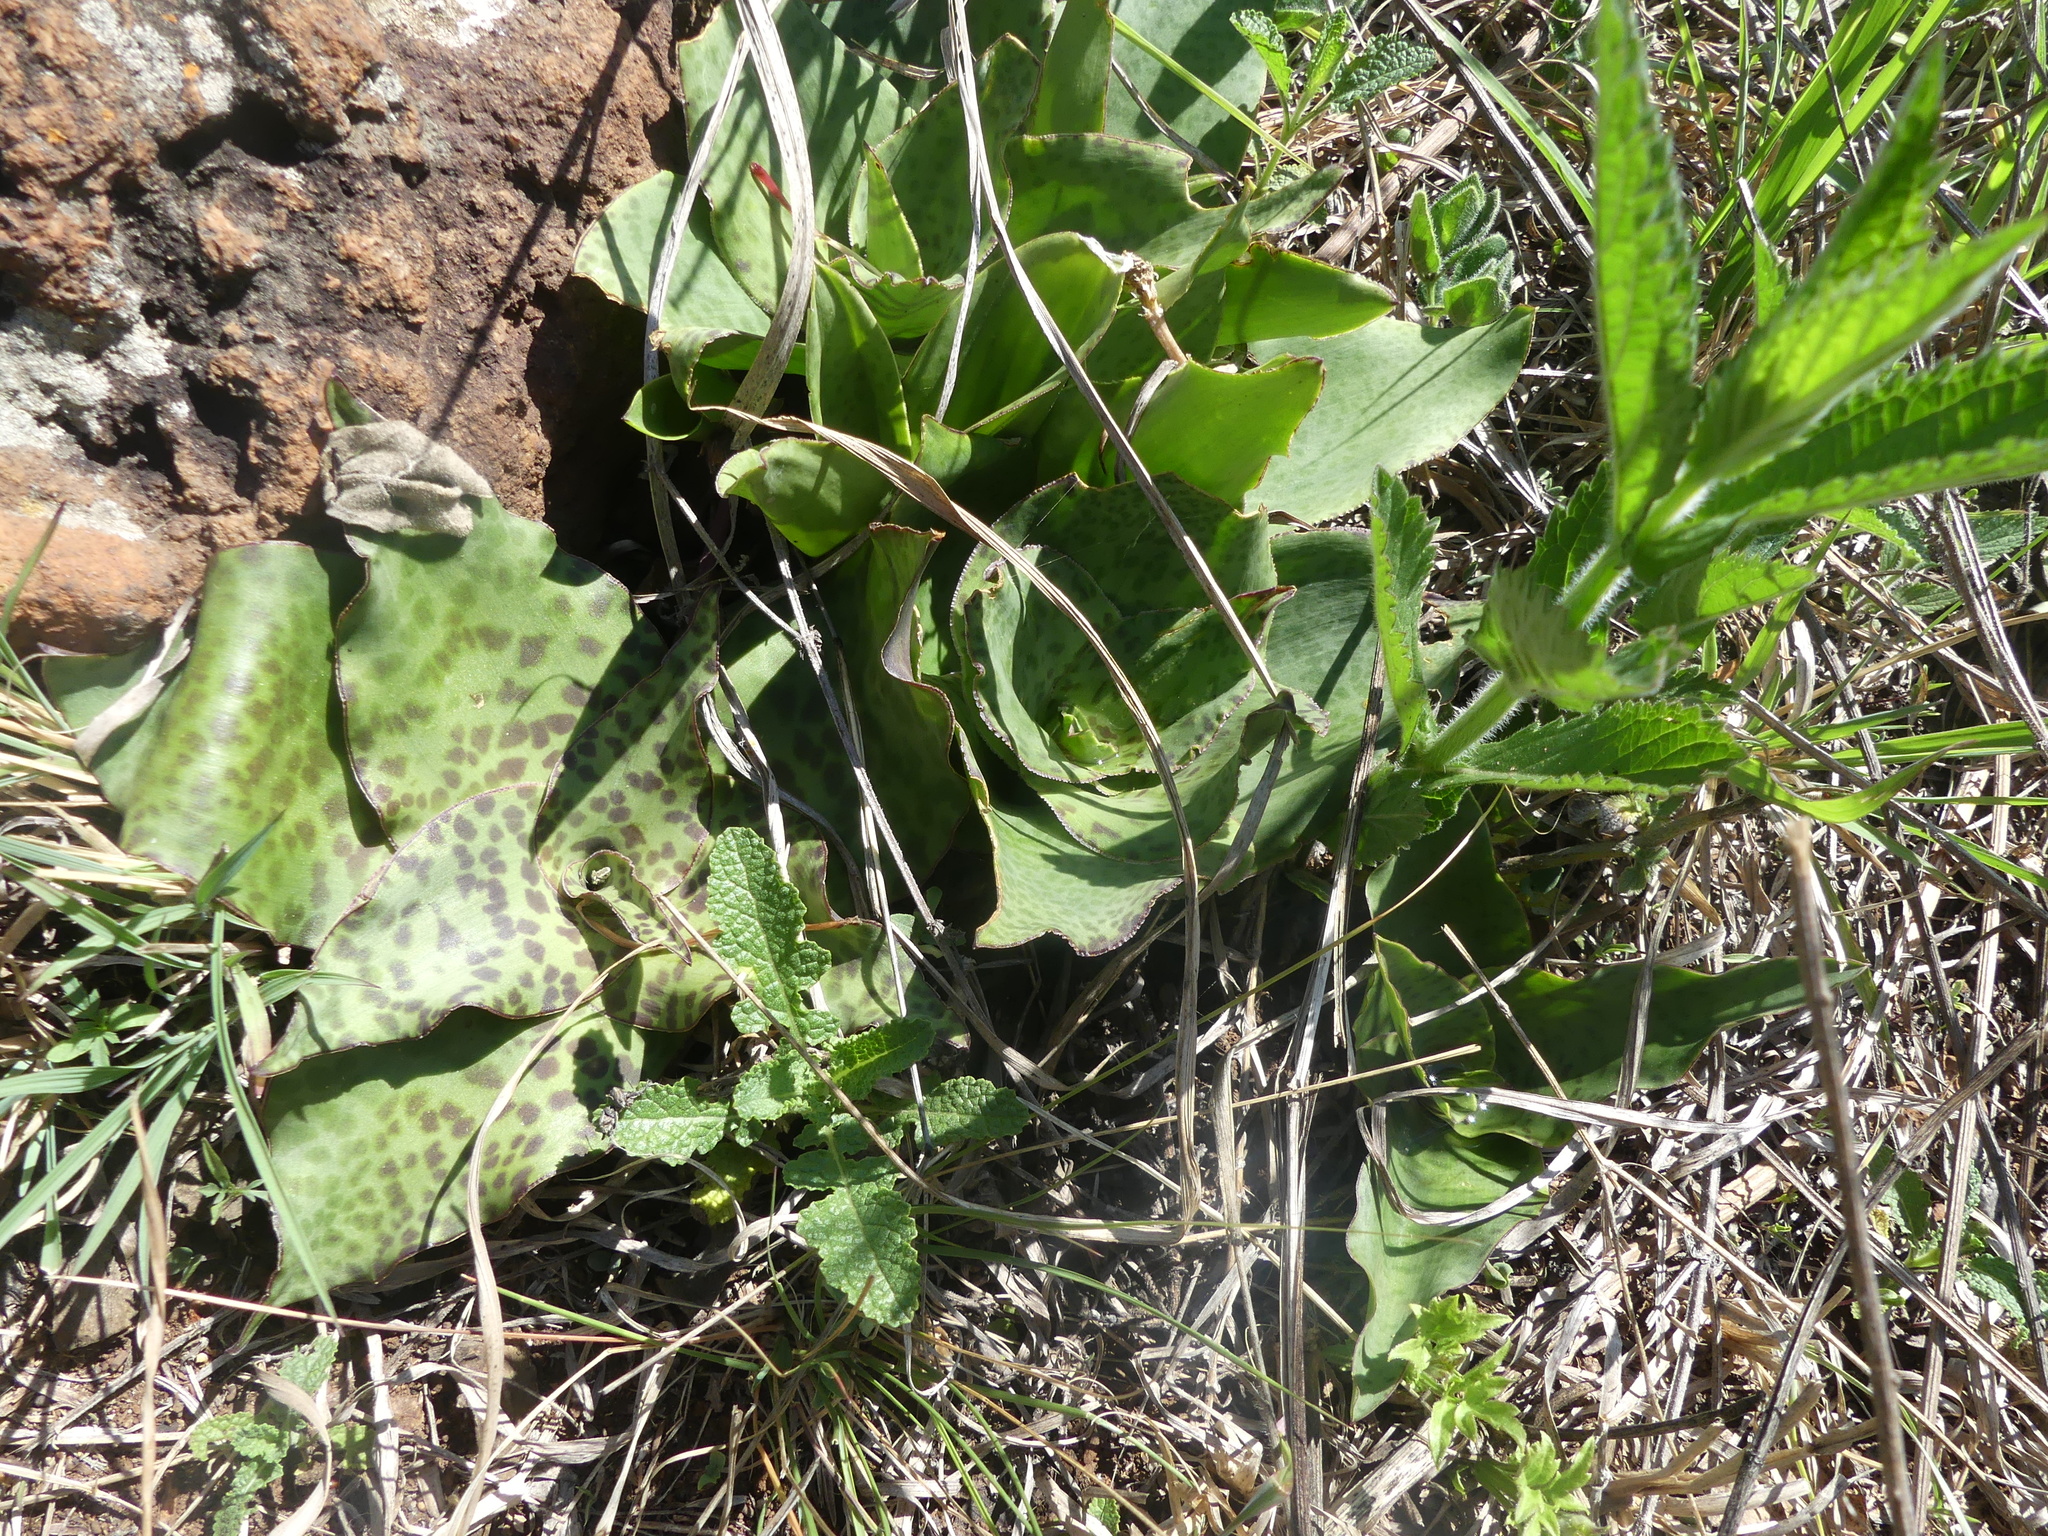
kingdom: Plantae
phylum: Tracheophyta
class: Liliopsida
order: Asparagales
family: Asparagaceae
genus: Ledebouria
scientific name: Ledebouria ovatifolia
